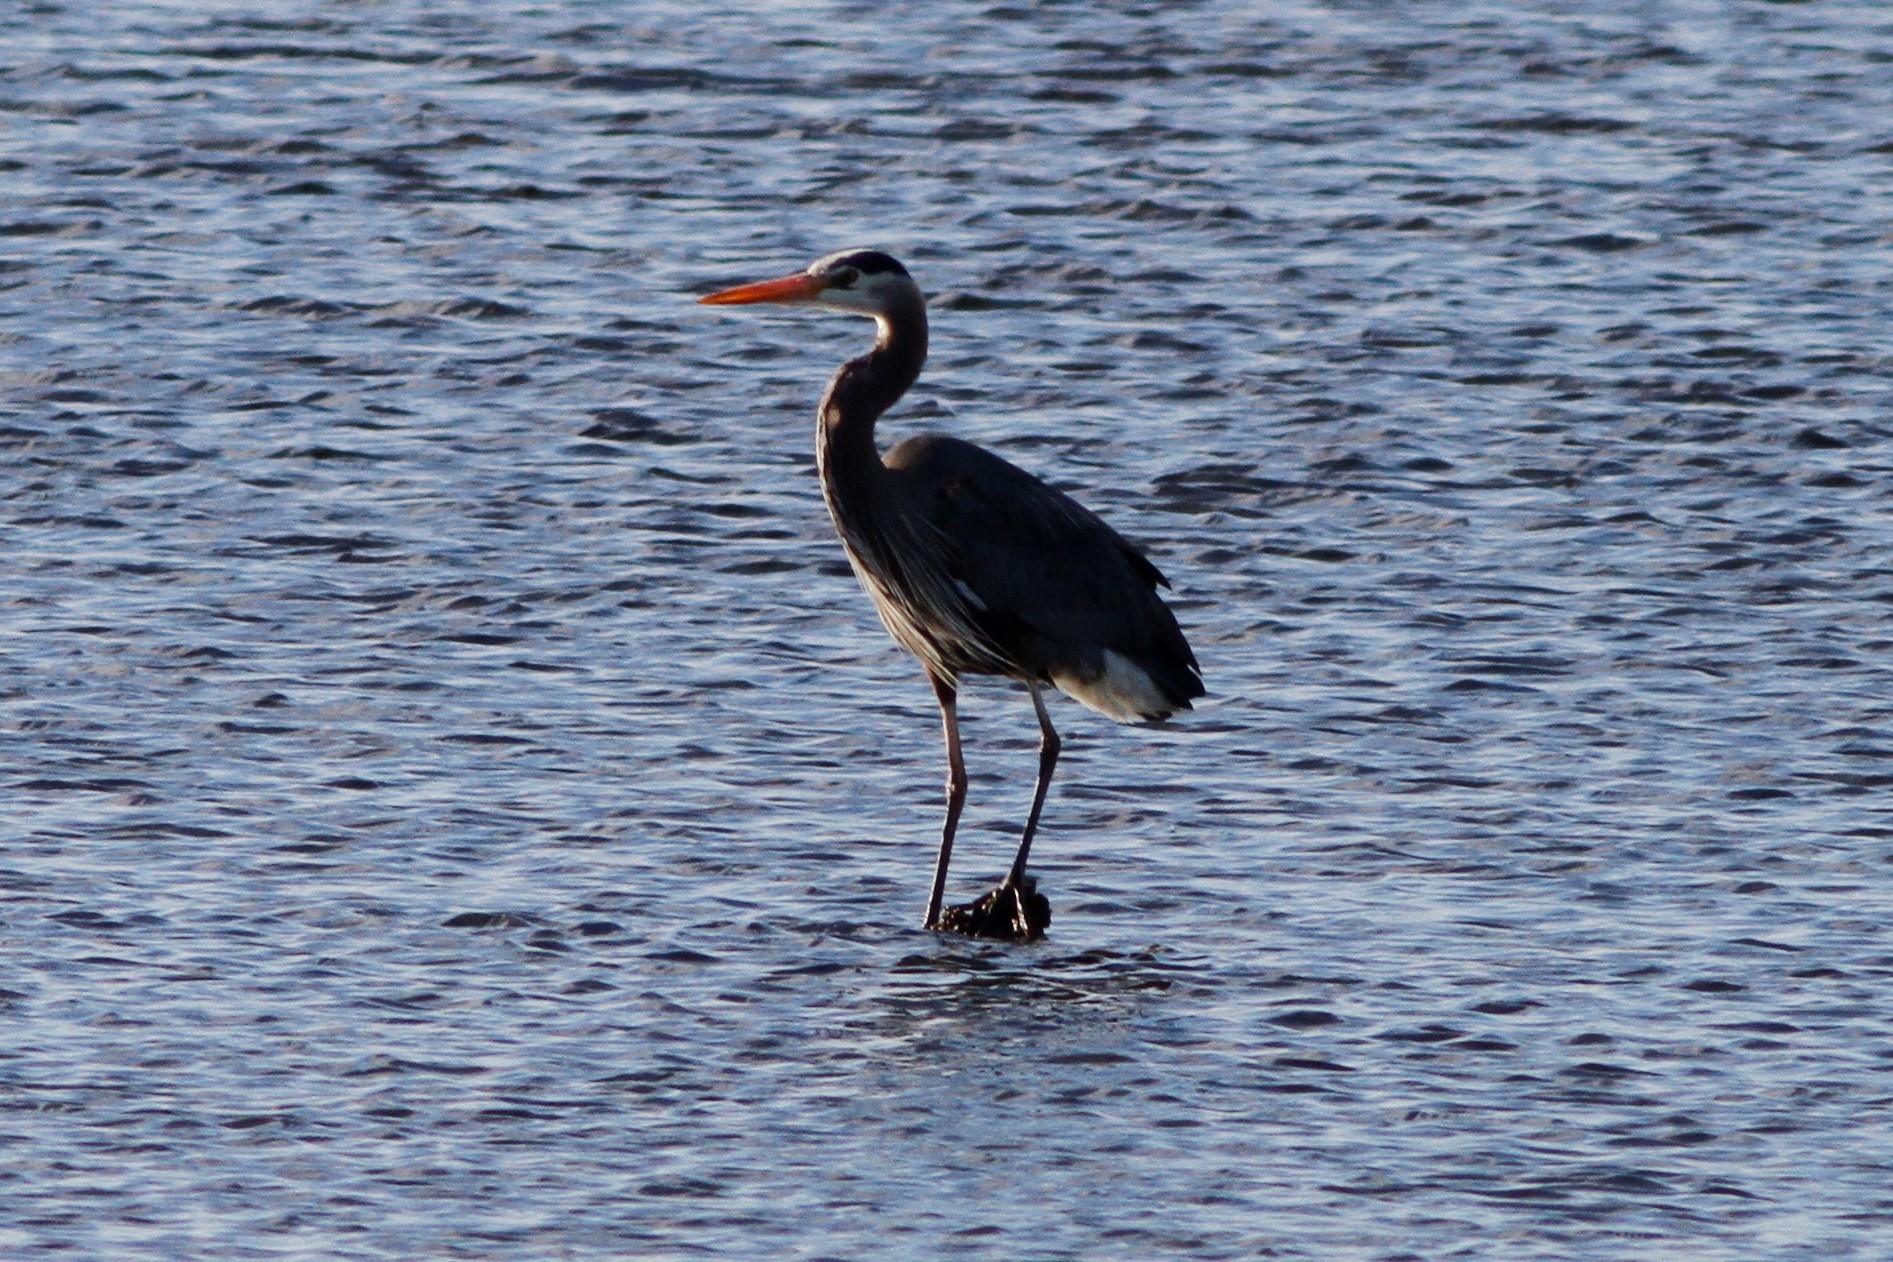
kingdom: Animalia
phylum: Chordata
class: Aves
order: Pelecaniformes
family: Ardeidae
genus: Ardea
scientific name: Ardea herodias
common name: Great blue heron
